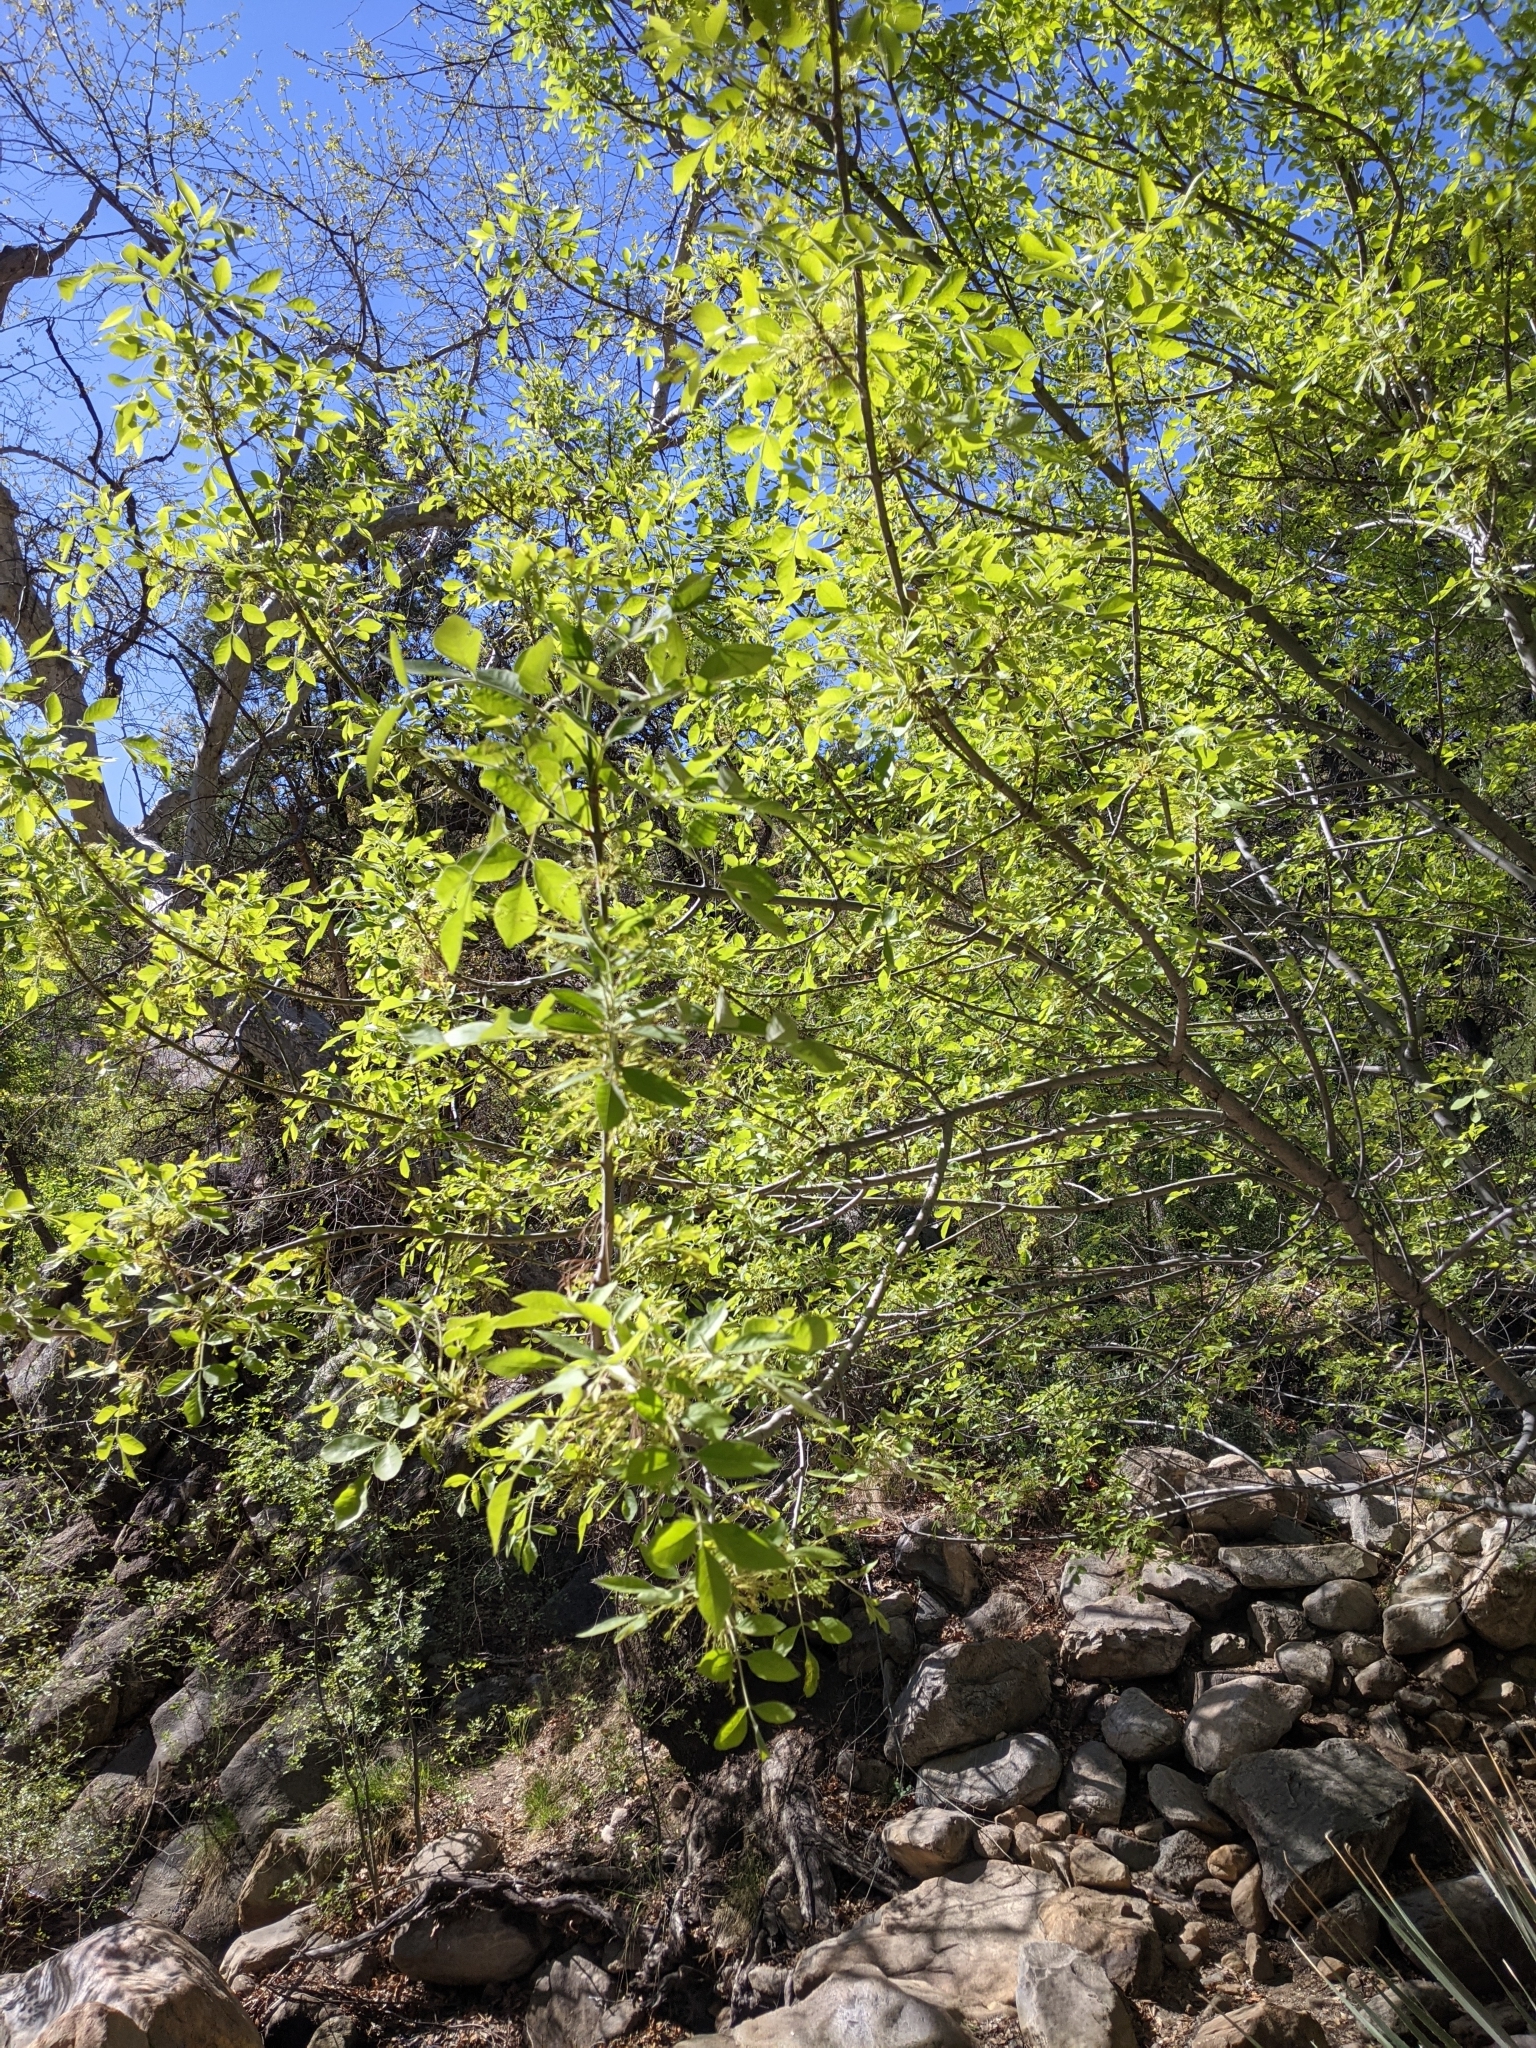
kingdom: Plantae
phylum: Tracheophyta
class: Magnoliopsida
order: Lamiales
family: Oleaceae
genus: Fraxinus
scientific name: Fraxinus velutina
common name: Arizon ash
